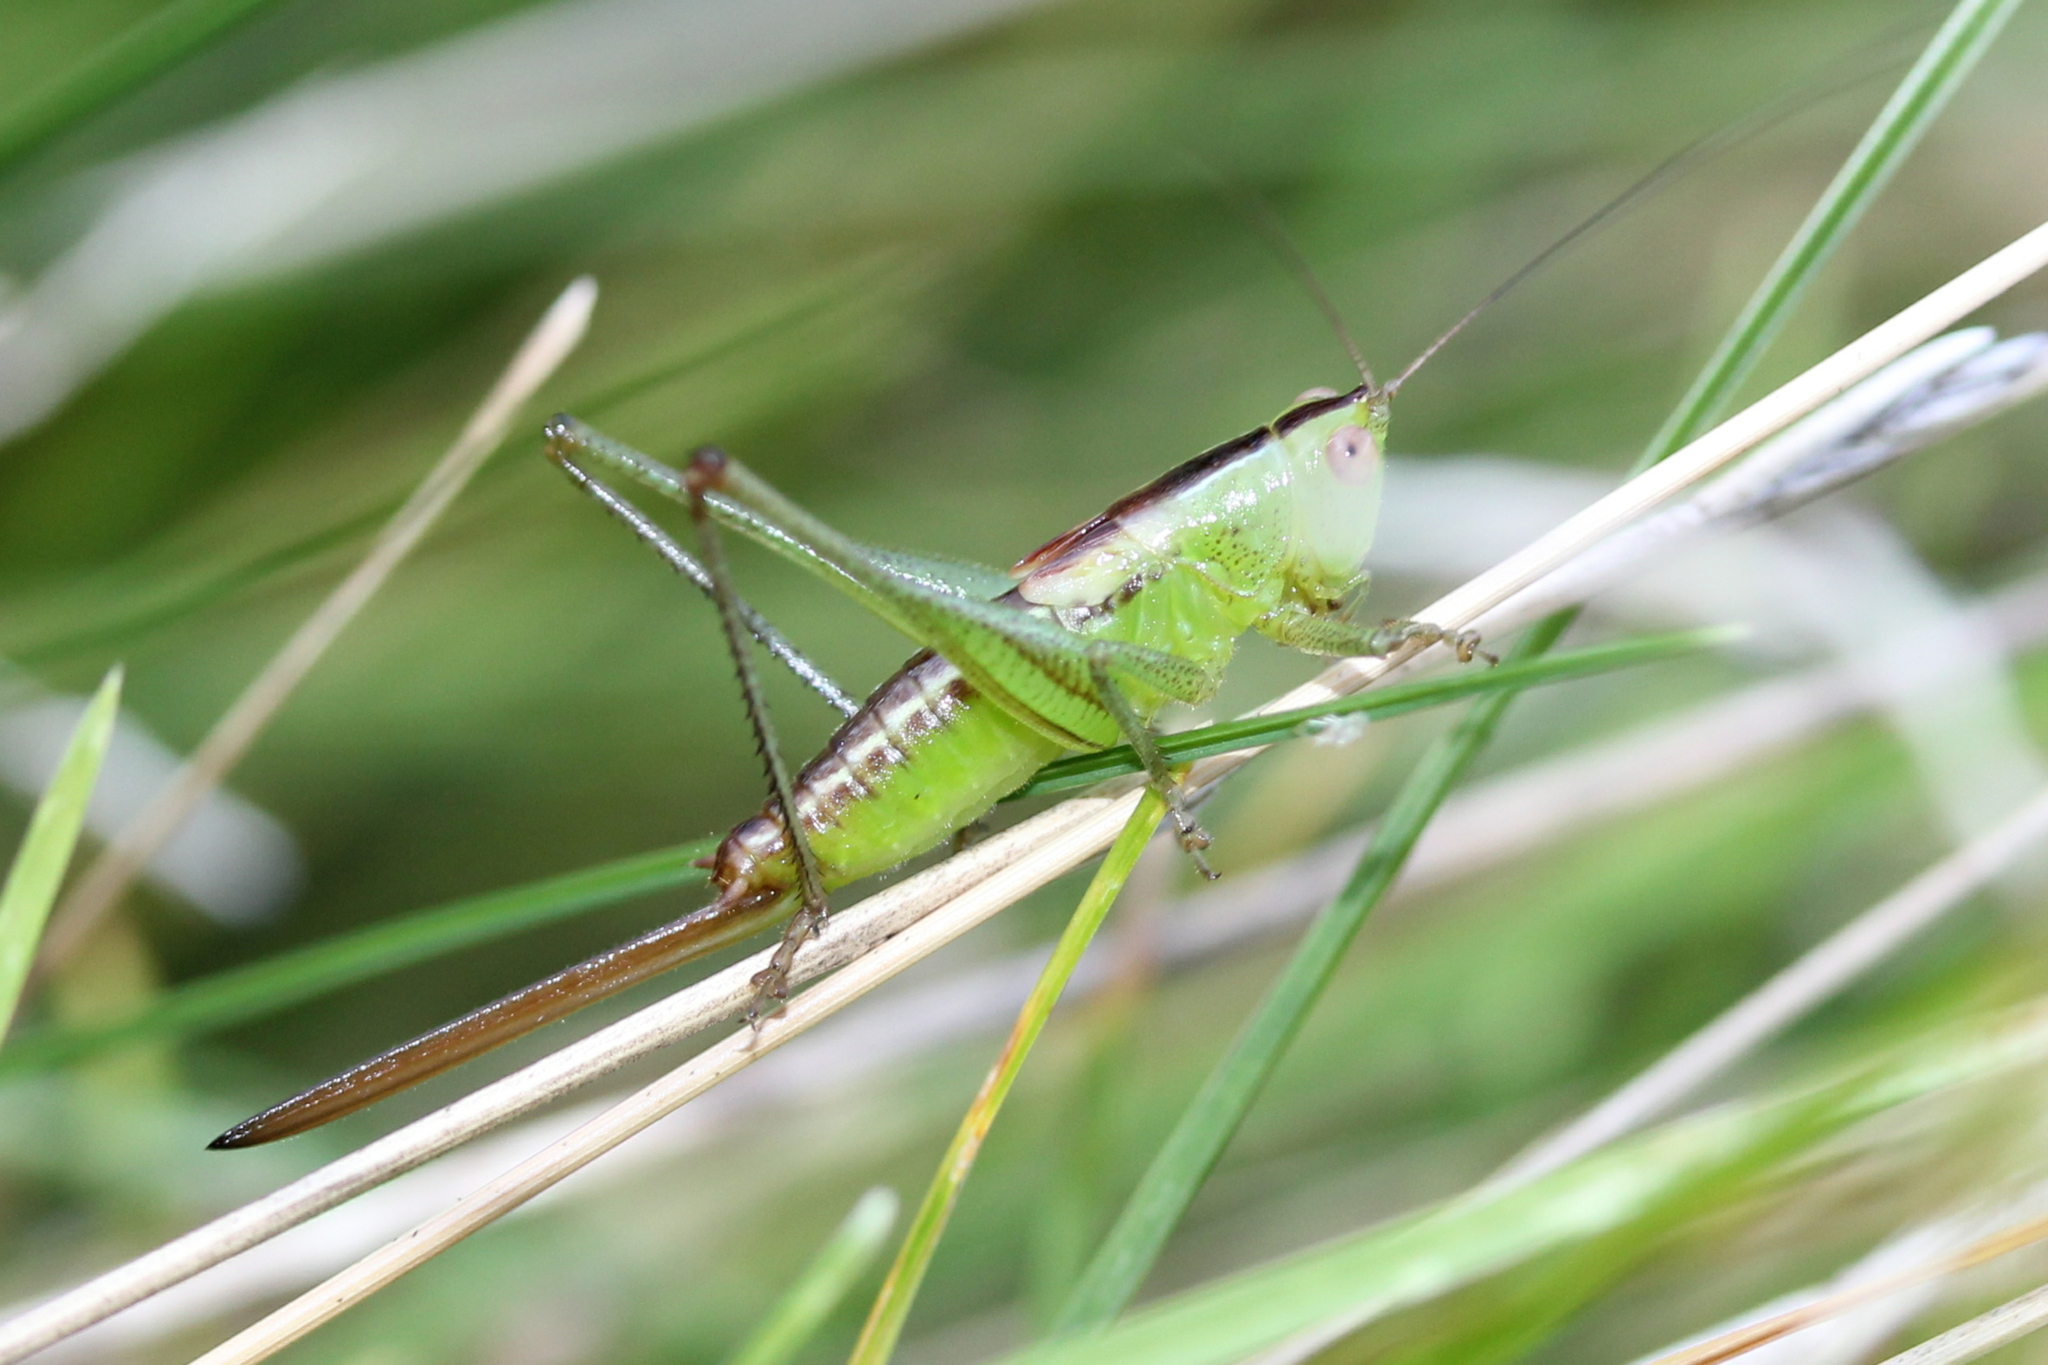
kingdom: Animalia
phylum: Arthropoda
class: Insecta
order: Orthoptera
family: Tettigoniidae
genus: Conocephalus
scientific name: Conocephalus brevipennis
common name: Short-winged meadow katydid
